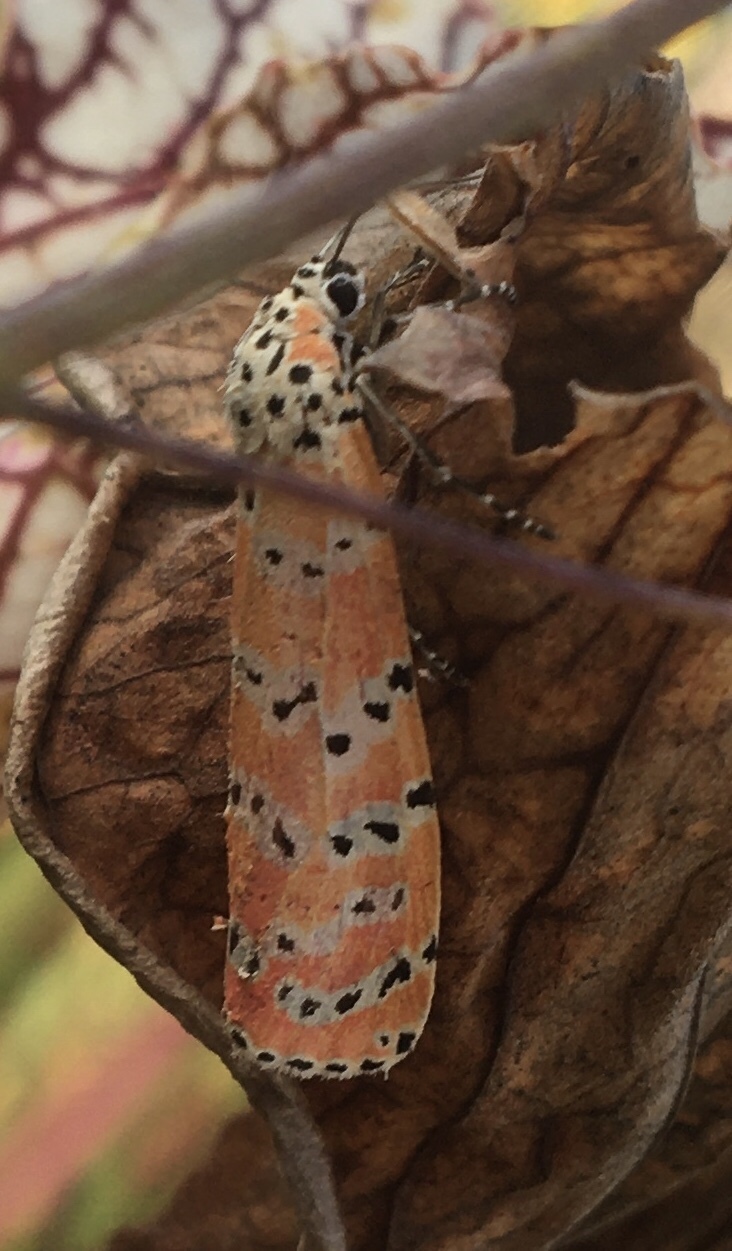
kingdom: Animalia
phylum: Arthropoda
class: Insecta
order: Lepidoptera
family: Erebidae
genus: Utetheisa
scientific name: Utetheisa ornatrix
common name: Beautiful utetheisa
